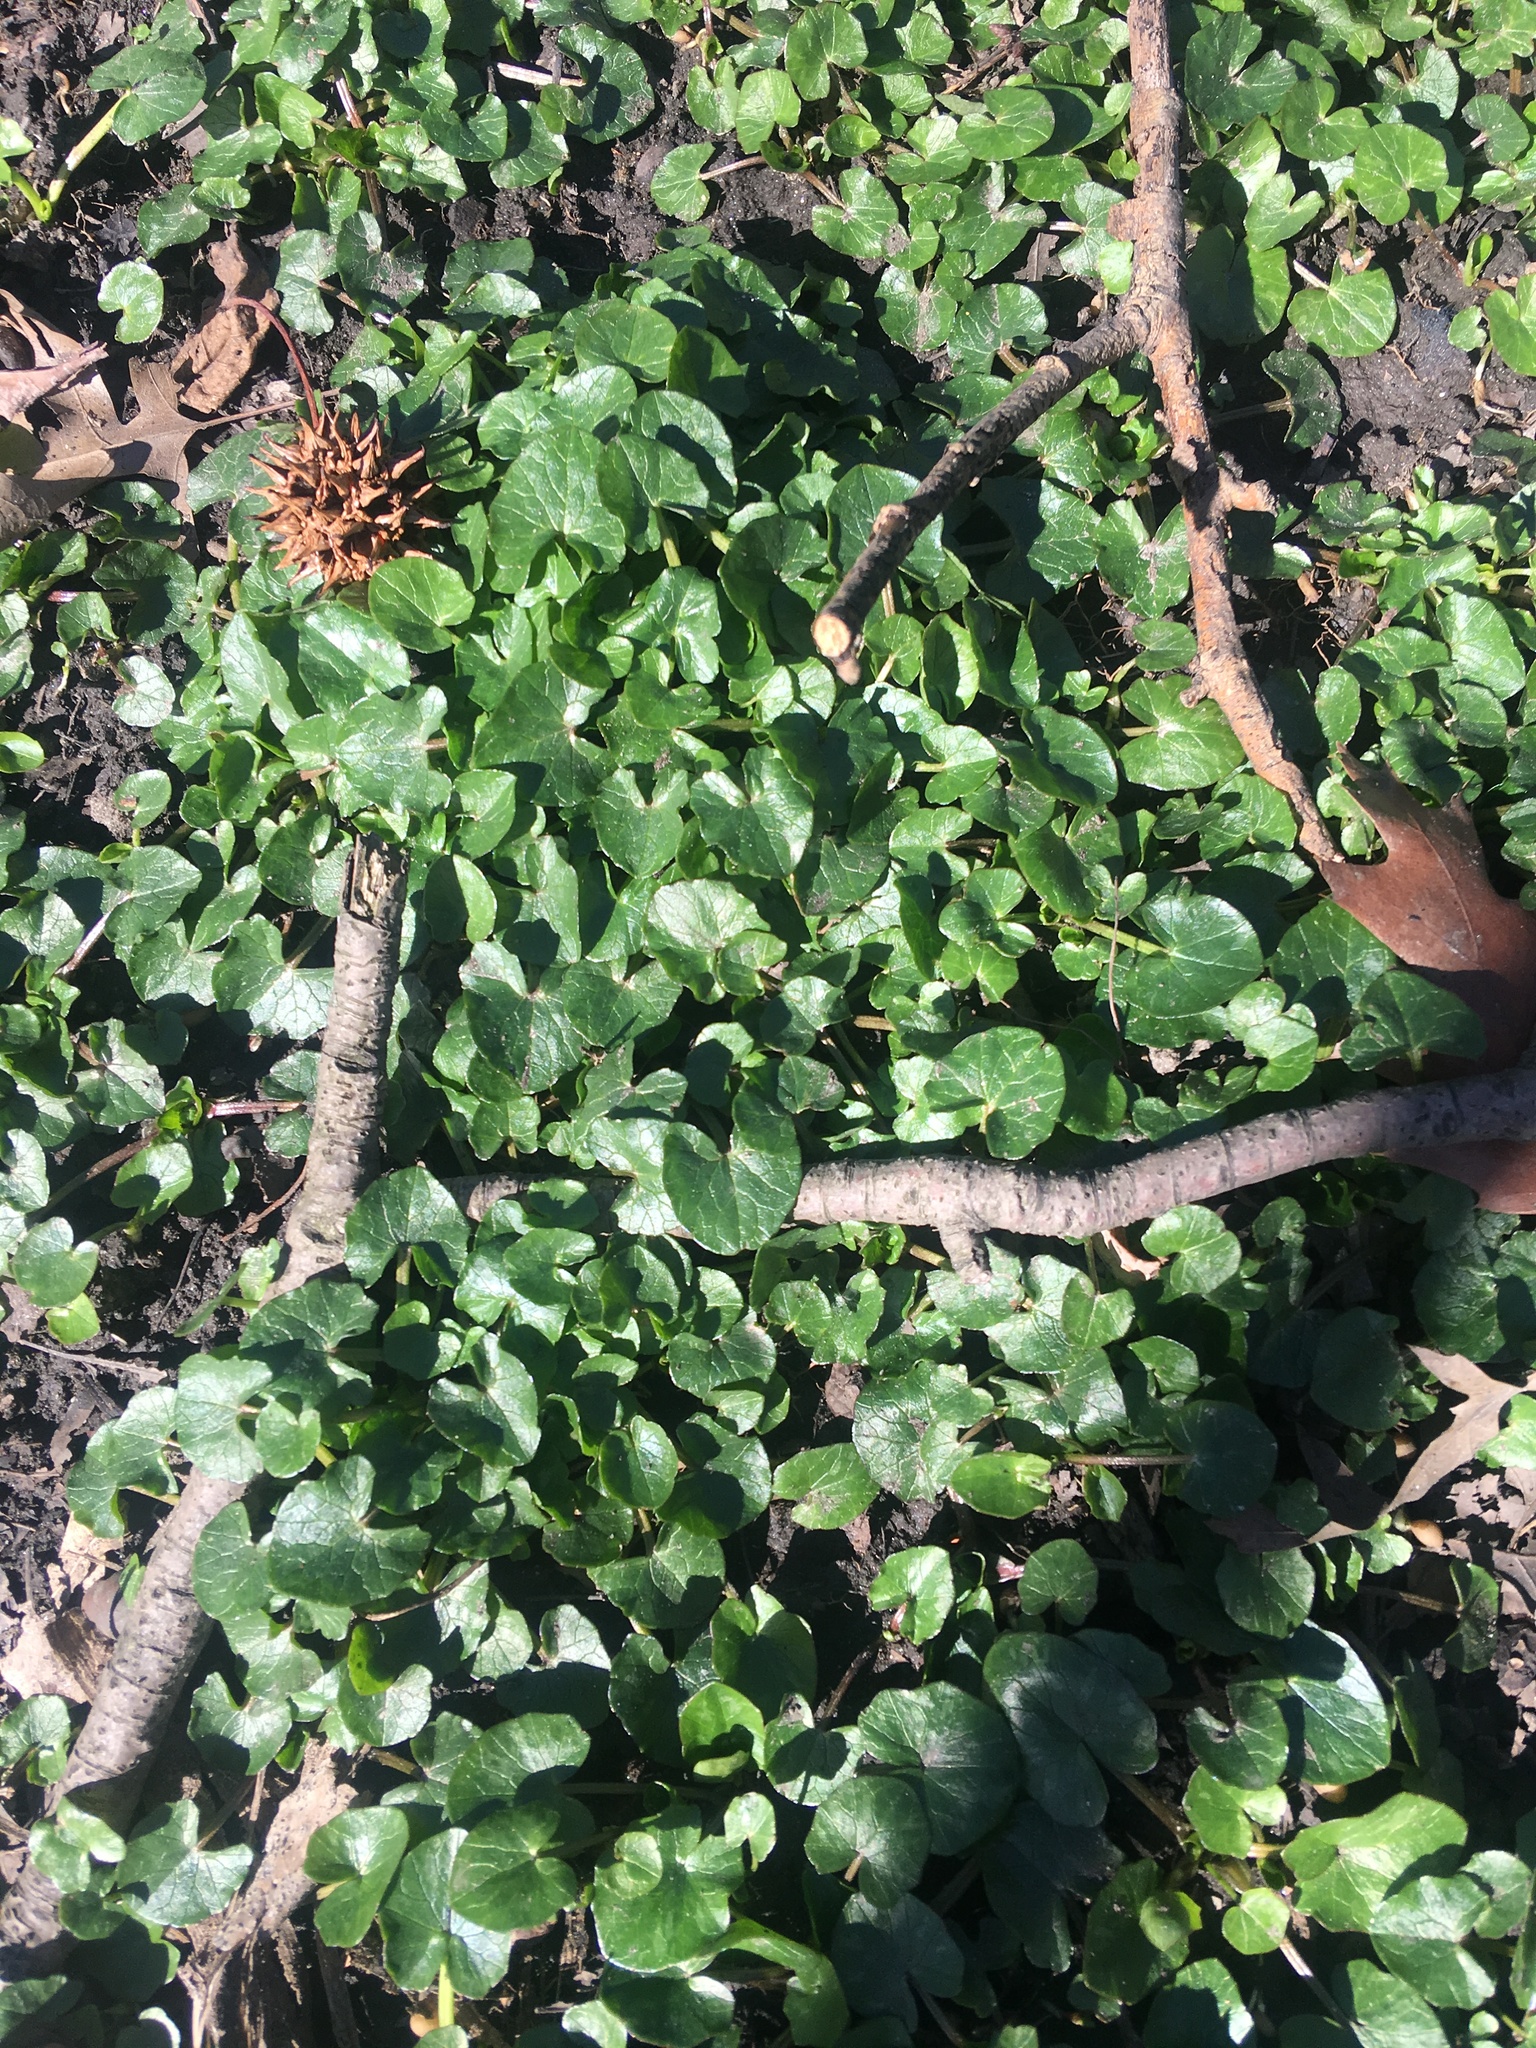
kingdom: Plantae
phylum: Tracheophyta
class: Magnoliopsida
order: Ranunculales
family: Ranunculaceae
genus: Ficaria
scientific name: Ficaria verna
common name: Lesser celandine
